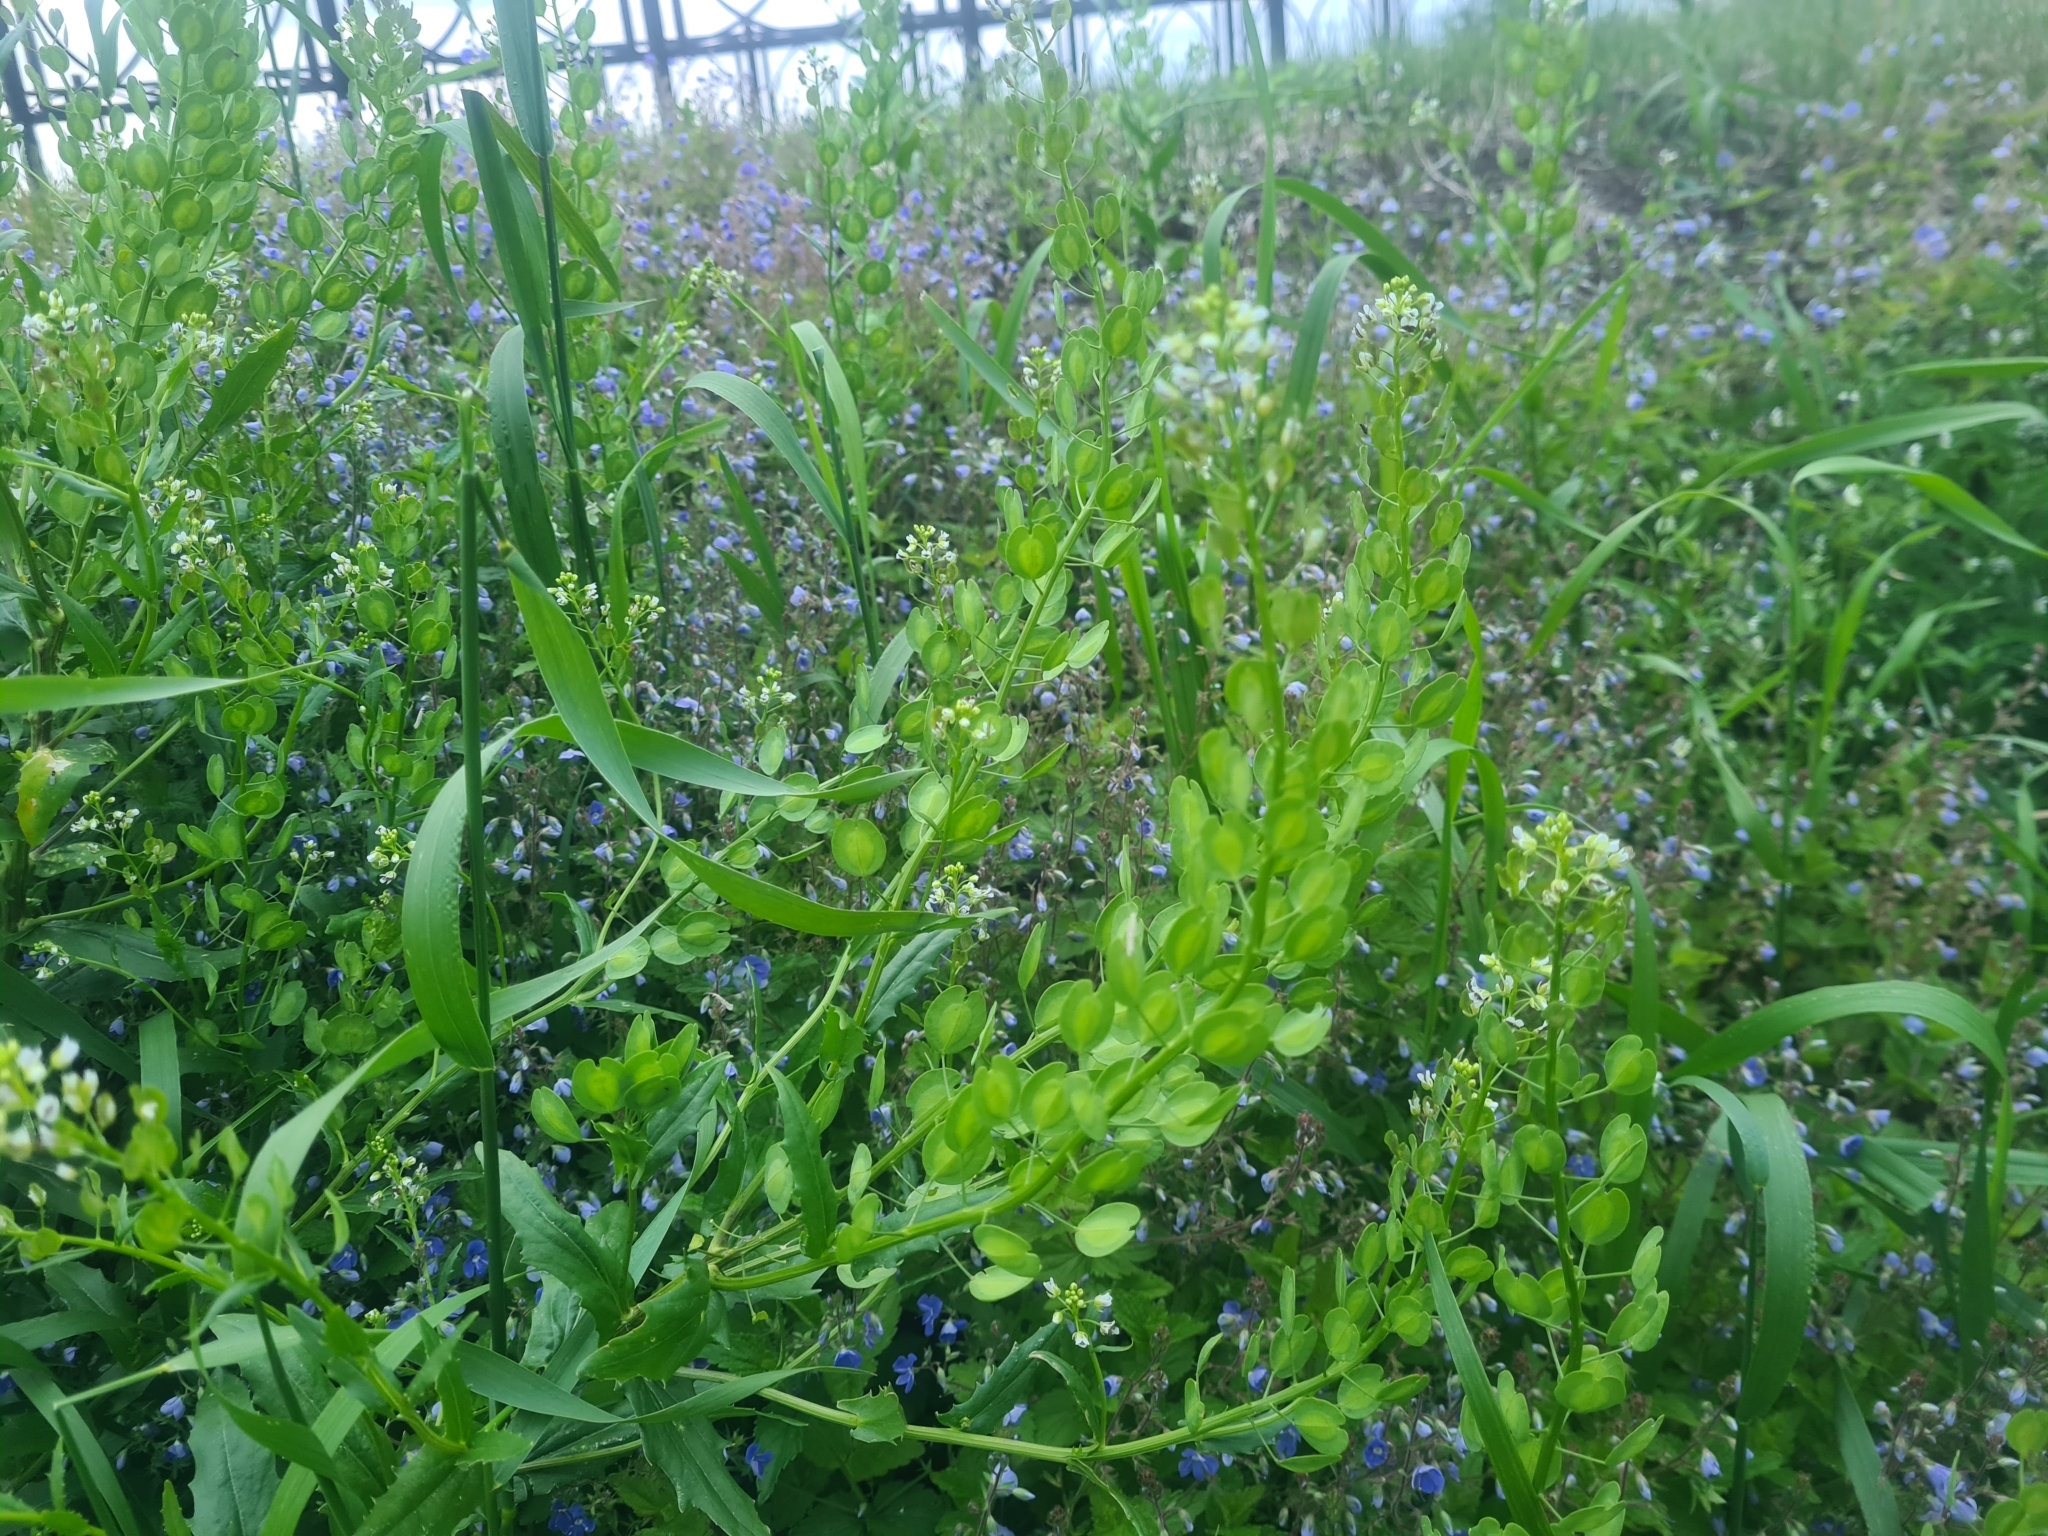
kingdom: Plantae
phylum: Tracheophyta
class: Magnoliopsida
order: Brassicales
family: Brassicaceae
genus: Thlaspi
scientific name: Thlaspi arvense
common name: Field pennycress
